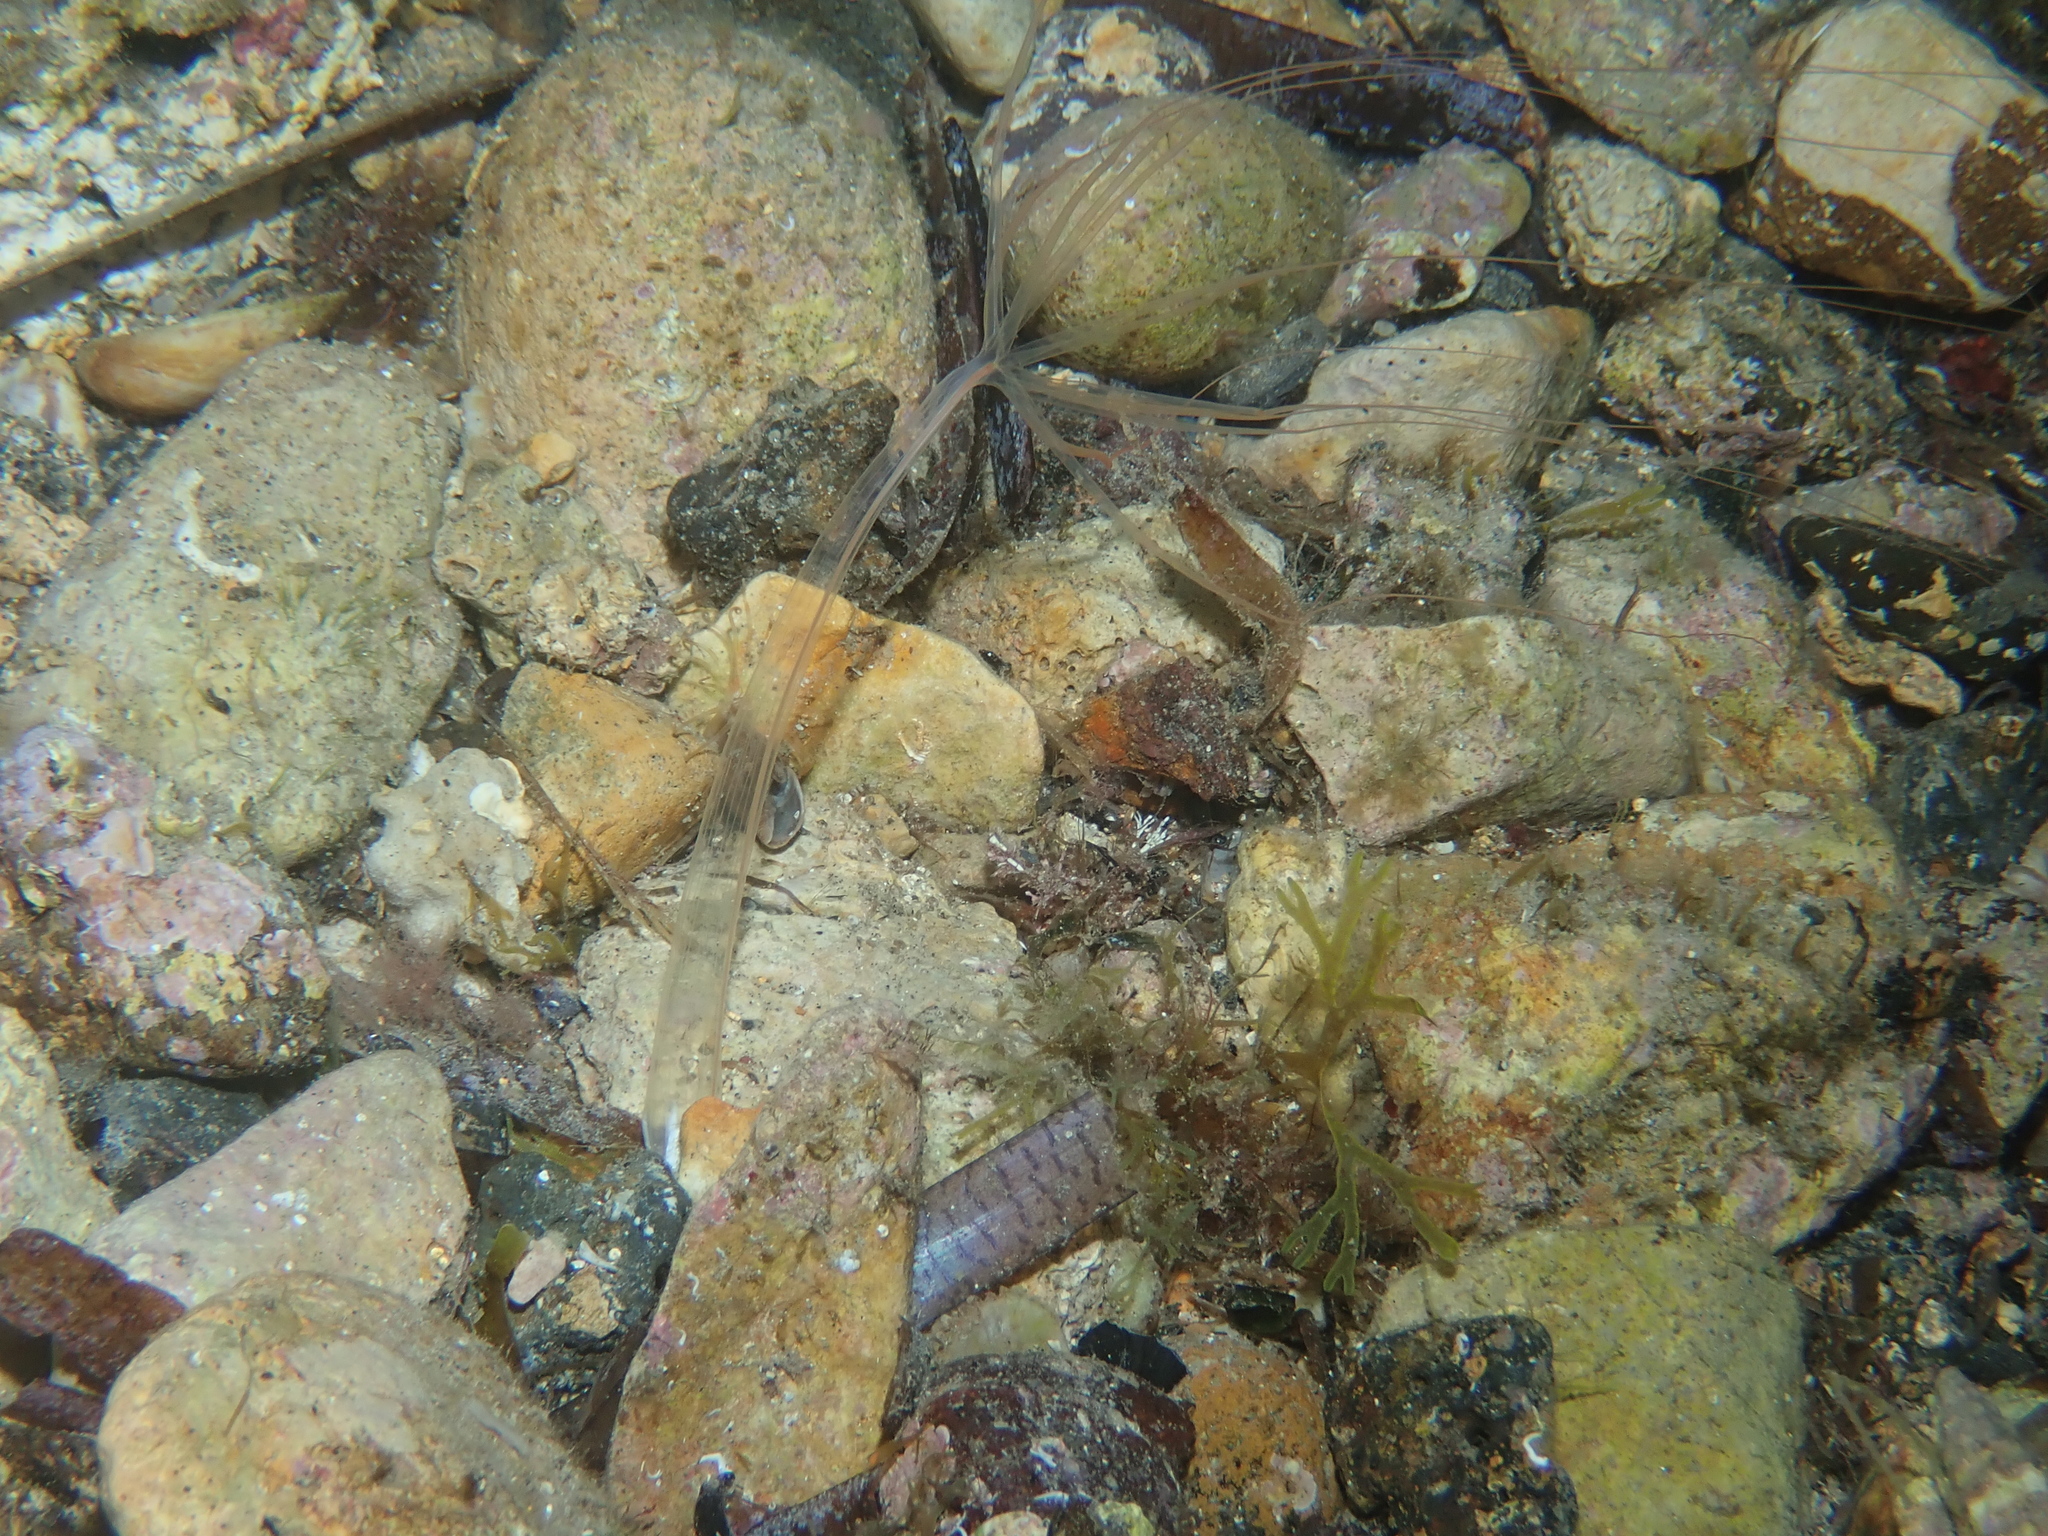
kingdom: Animalia
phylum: Cnidaria
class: Anthozoa
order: Actiniaria
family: Halcampoididae
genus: Halcampoides
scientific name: Halcampoides purpureus
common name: Purple anemone
